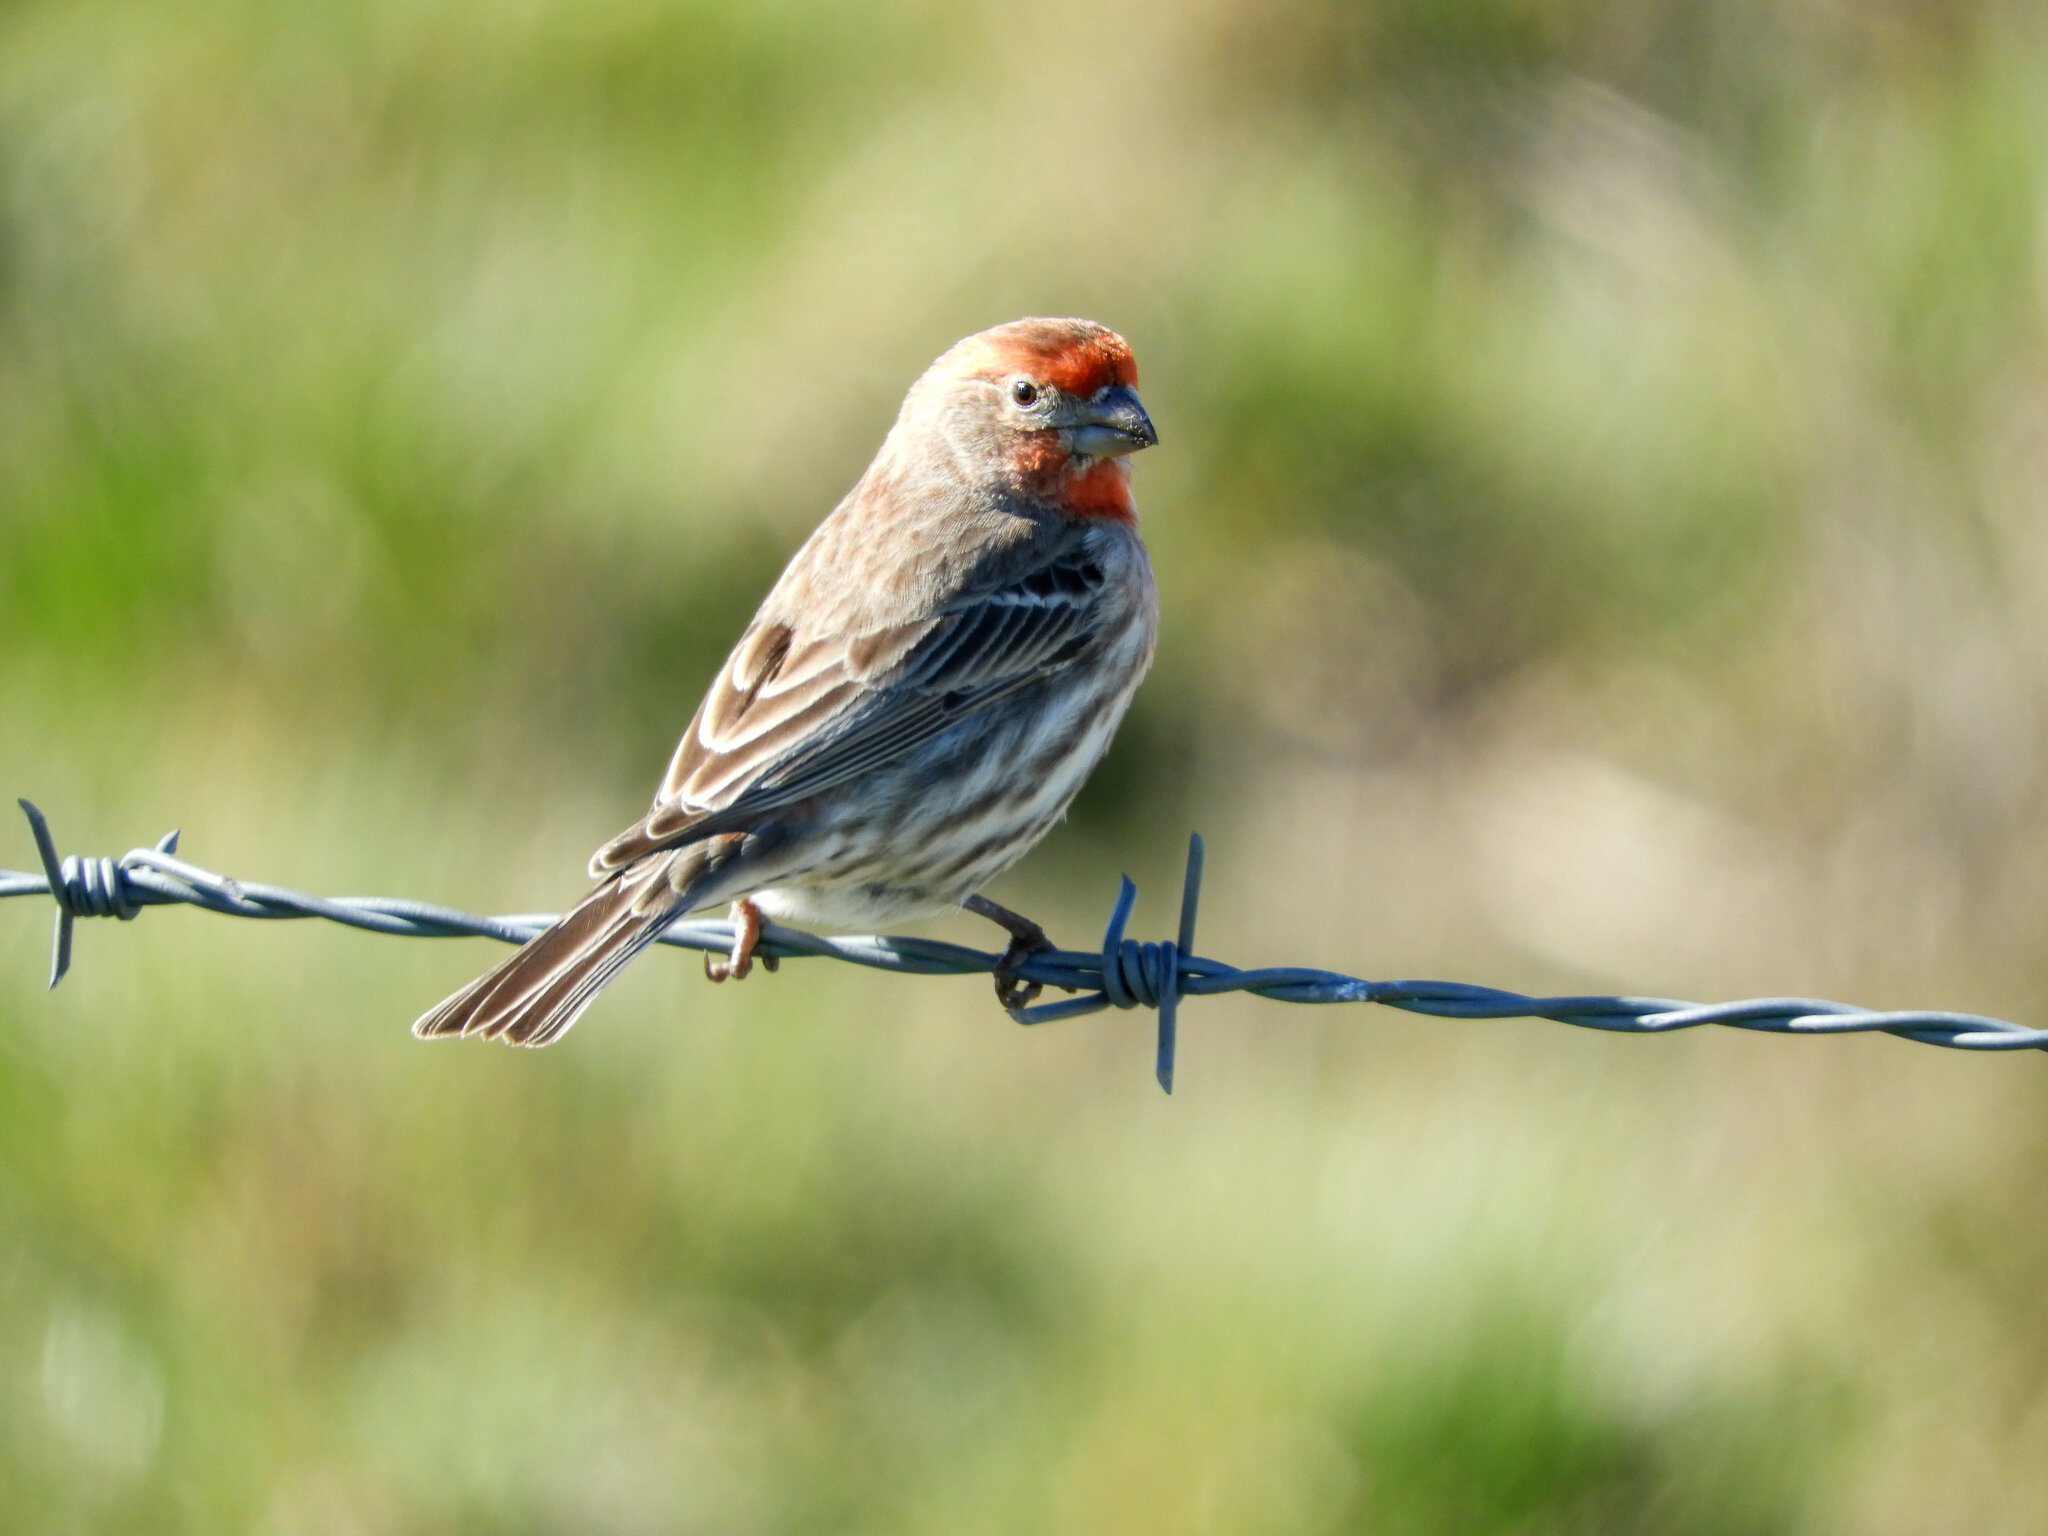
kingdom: Animalia
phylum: Chordata
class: Aves
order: Passeriformes
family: Fringillidae
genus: Haemorhous
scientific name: Haemorhous mexicanus
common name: House finch
